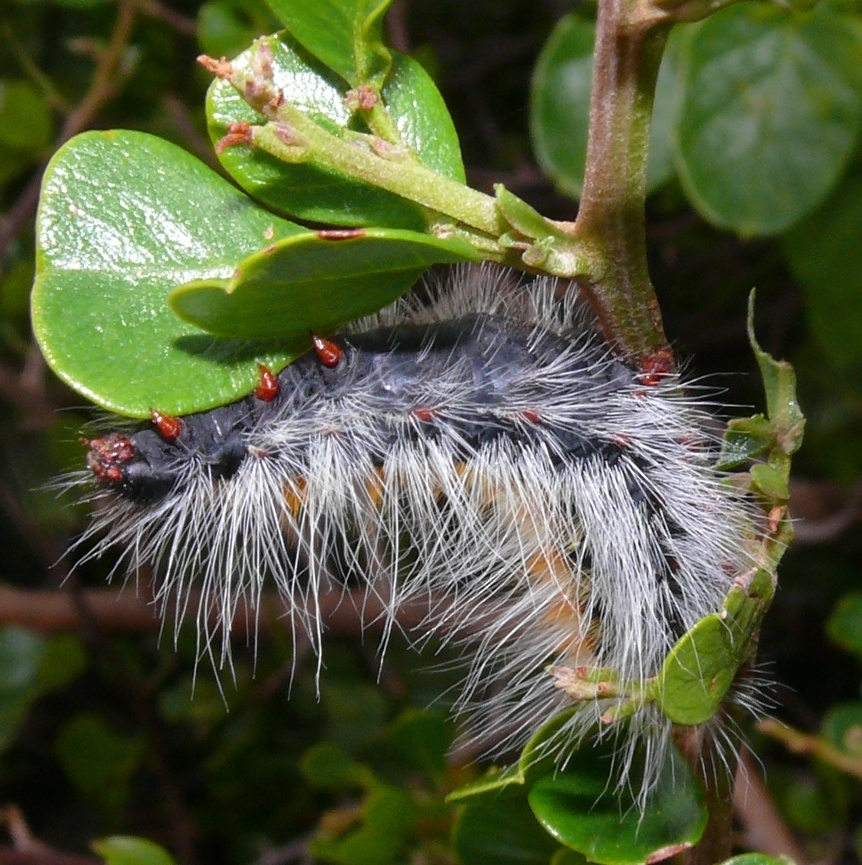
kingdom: Animalia
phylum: Arthropoda
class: Insecta
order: Lepidoptera
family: Lasiocampidae
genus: Bombycomorpha
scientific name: Bombycomorpha bifascia
